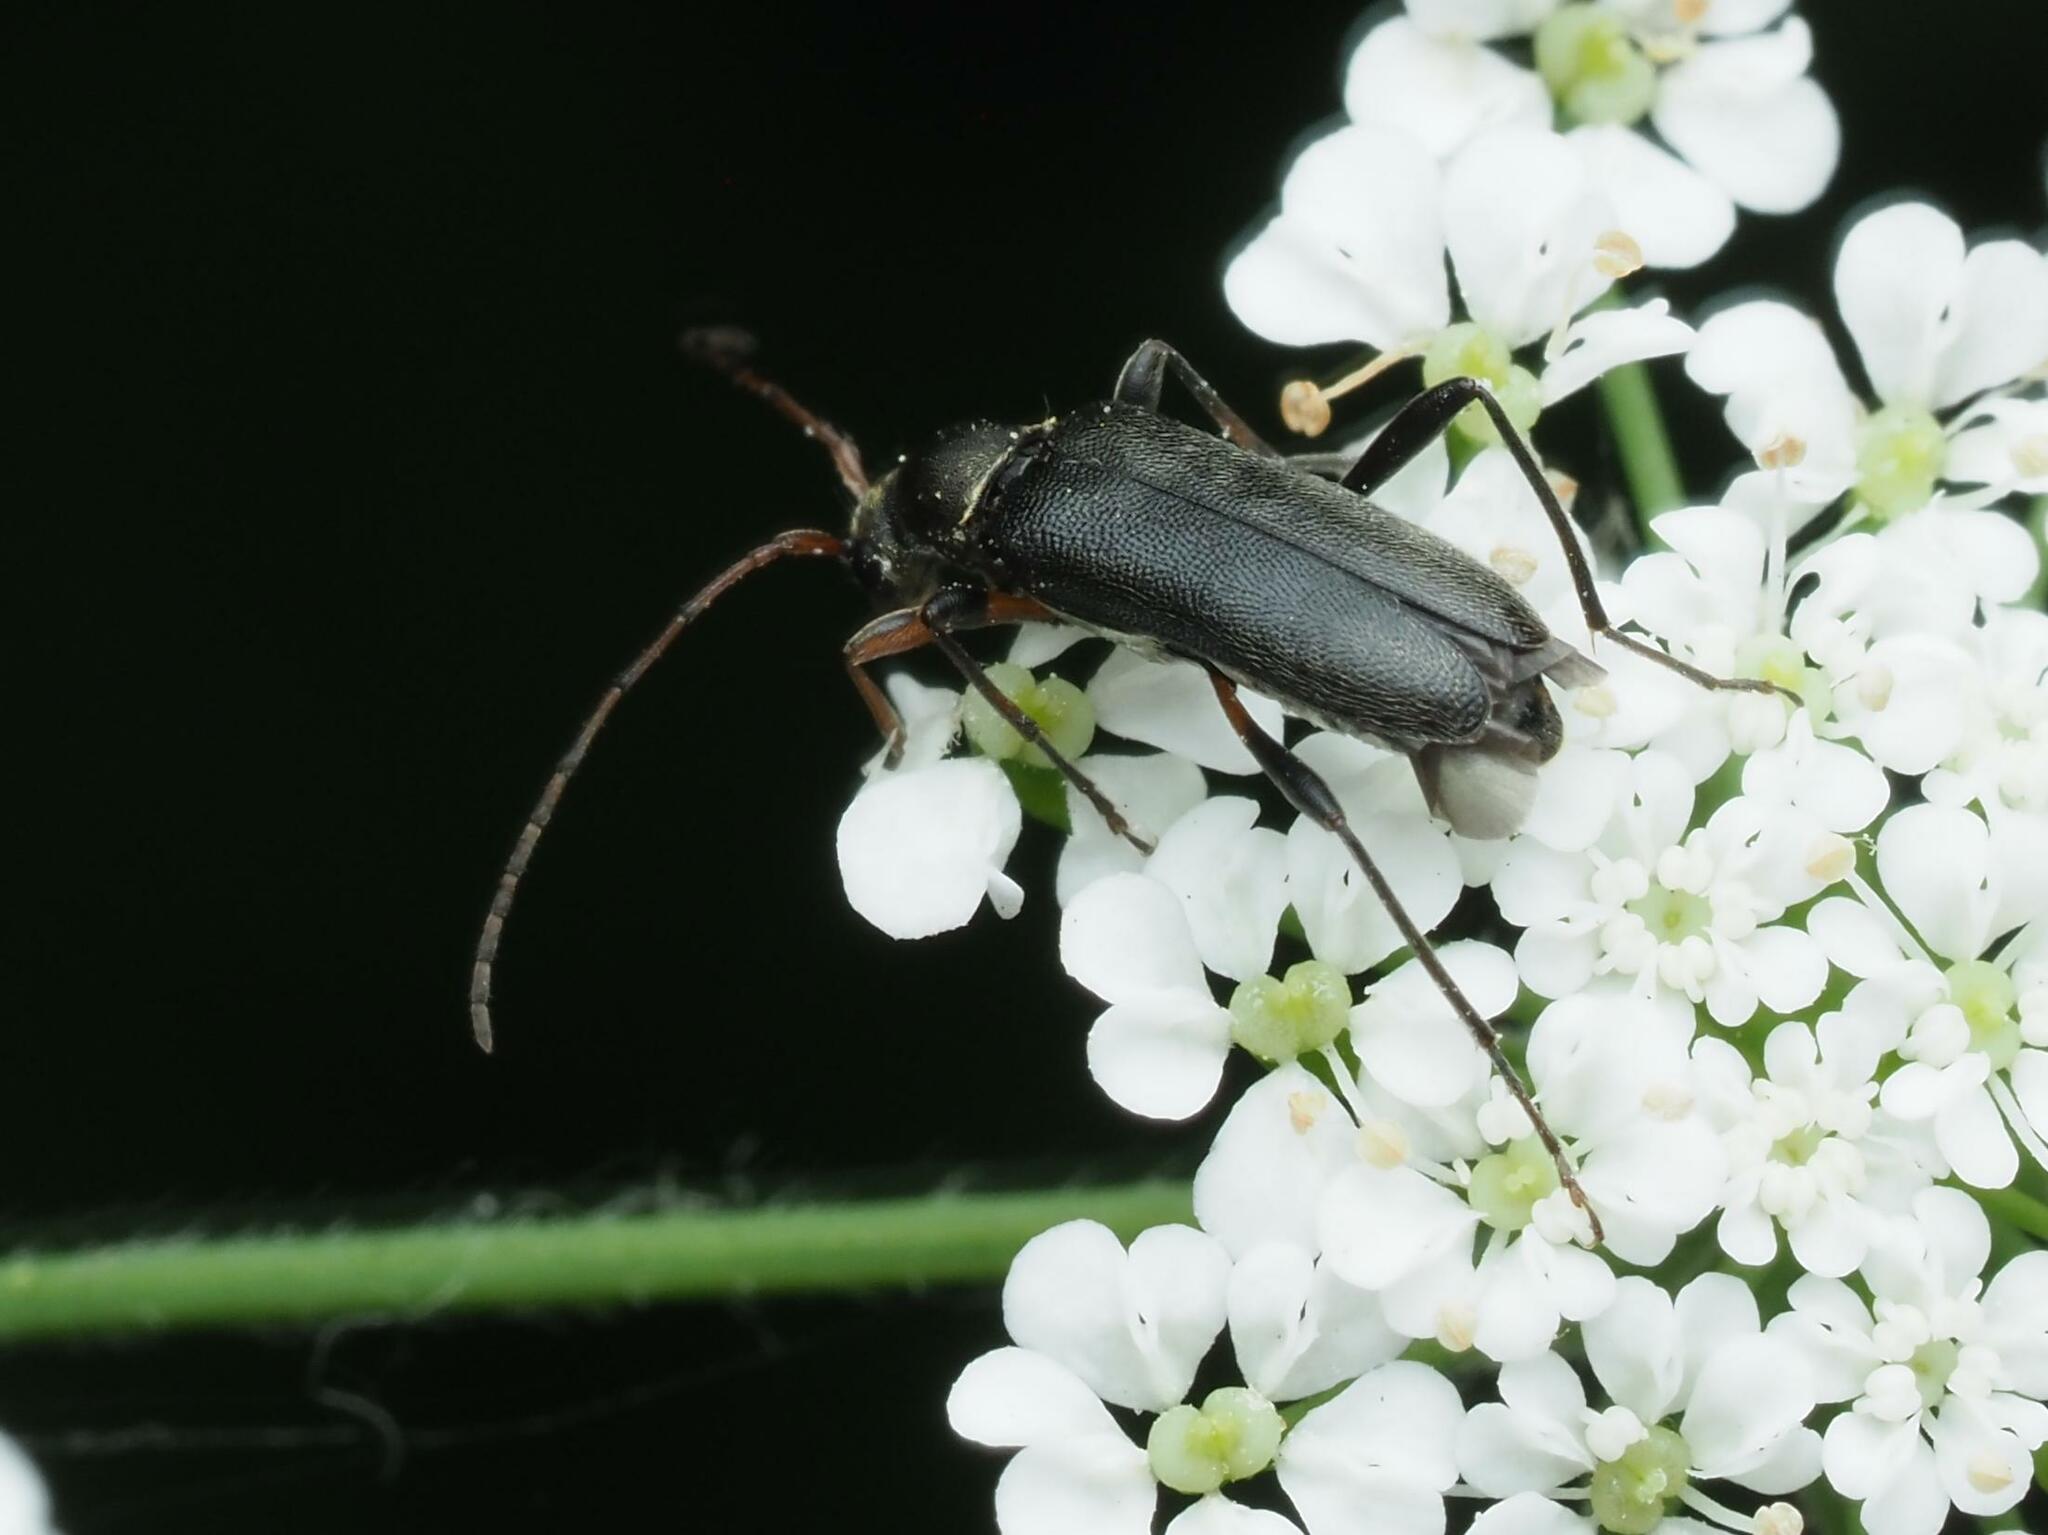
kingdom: Animalia
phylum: Arthropoda
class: Insecta
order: Coleoptera
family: Cerambycidae
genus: Grammoptera
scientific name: Grammoptera ruficornis
